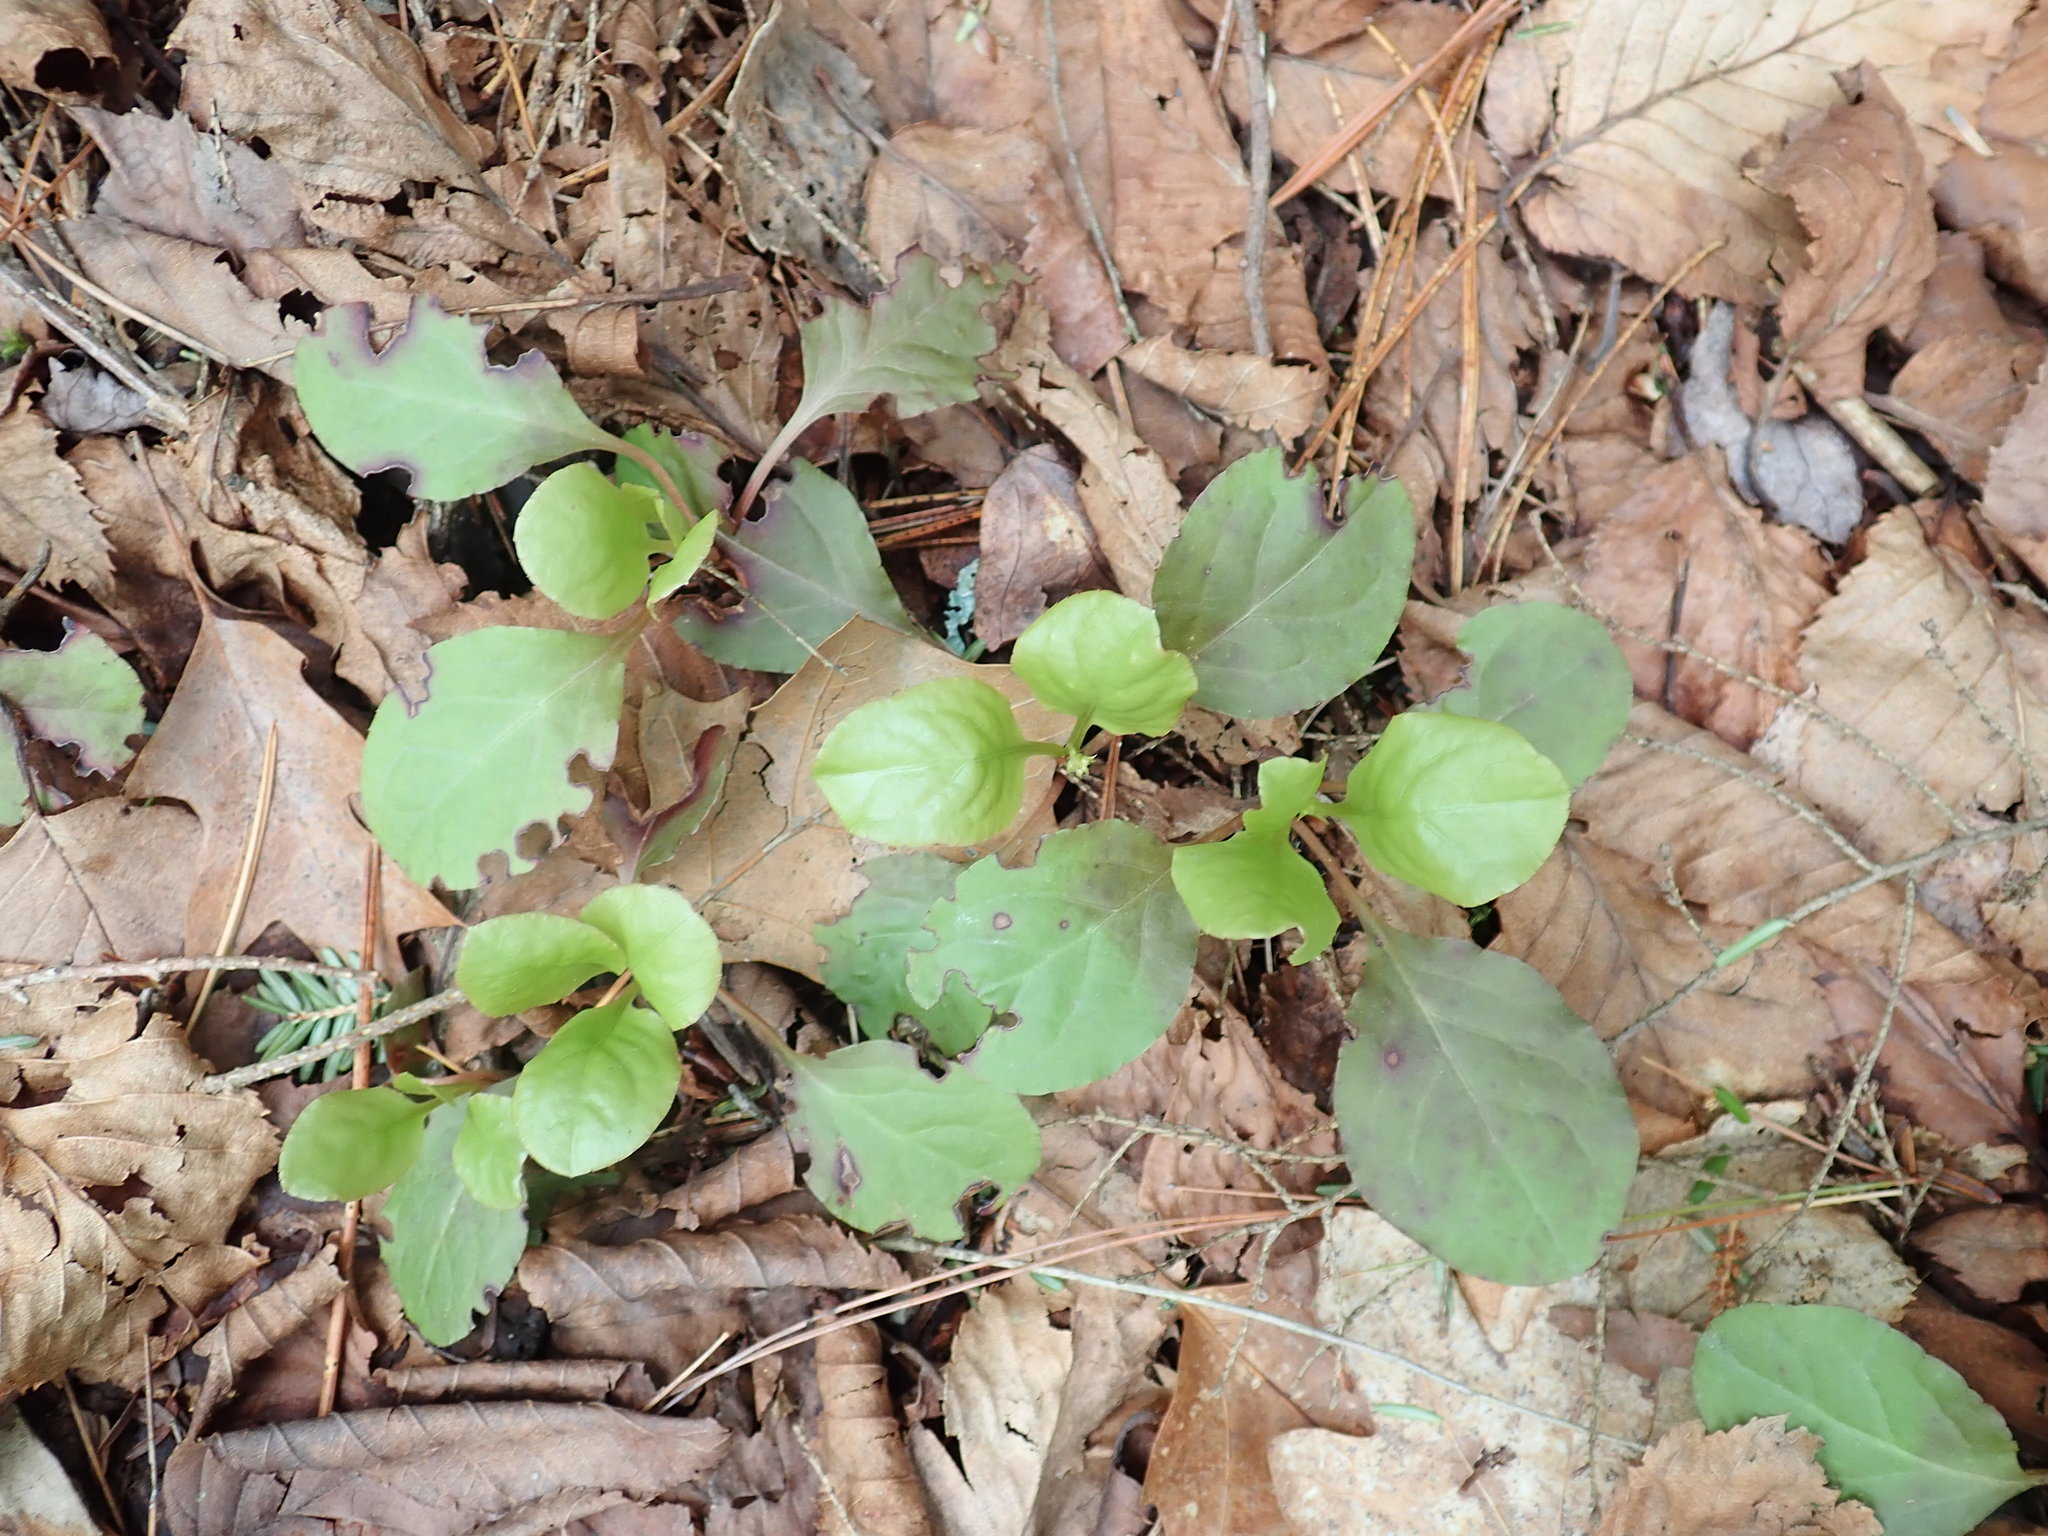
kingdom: Plantae
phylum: Tracheophyta
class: Magnoliopsida
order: Ericales
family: Ericaceae
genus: Pyrola
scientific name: Pyrola elliptica
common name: Shinleaf
